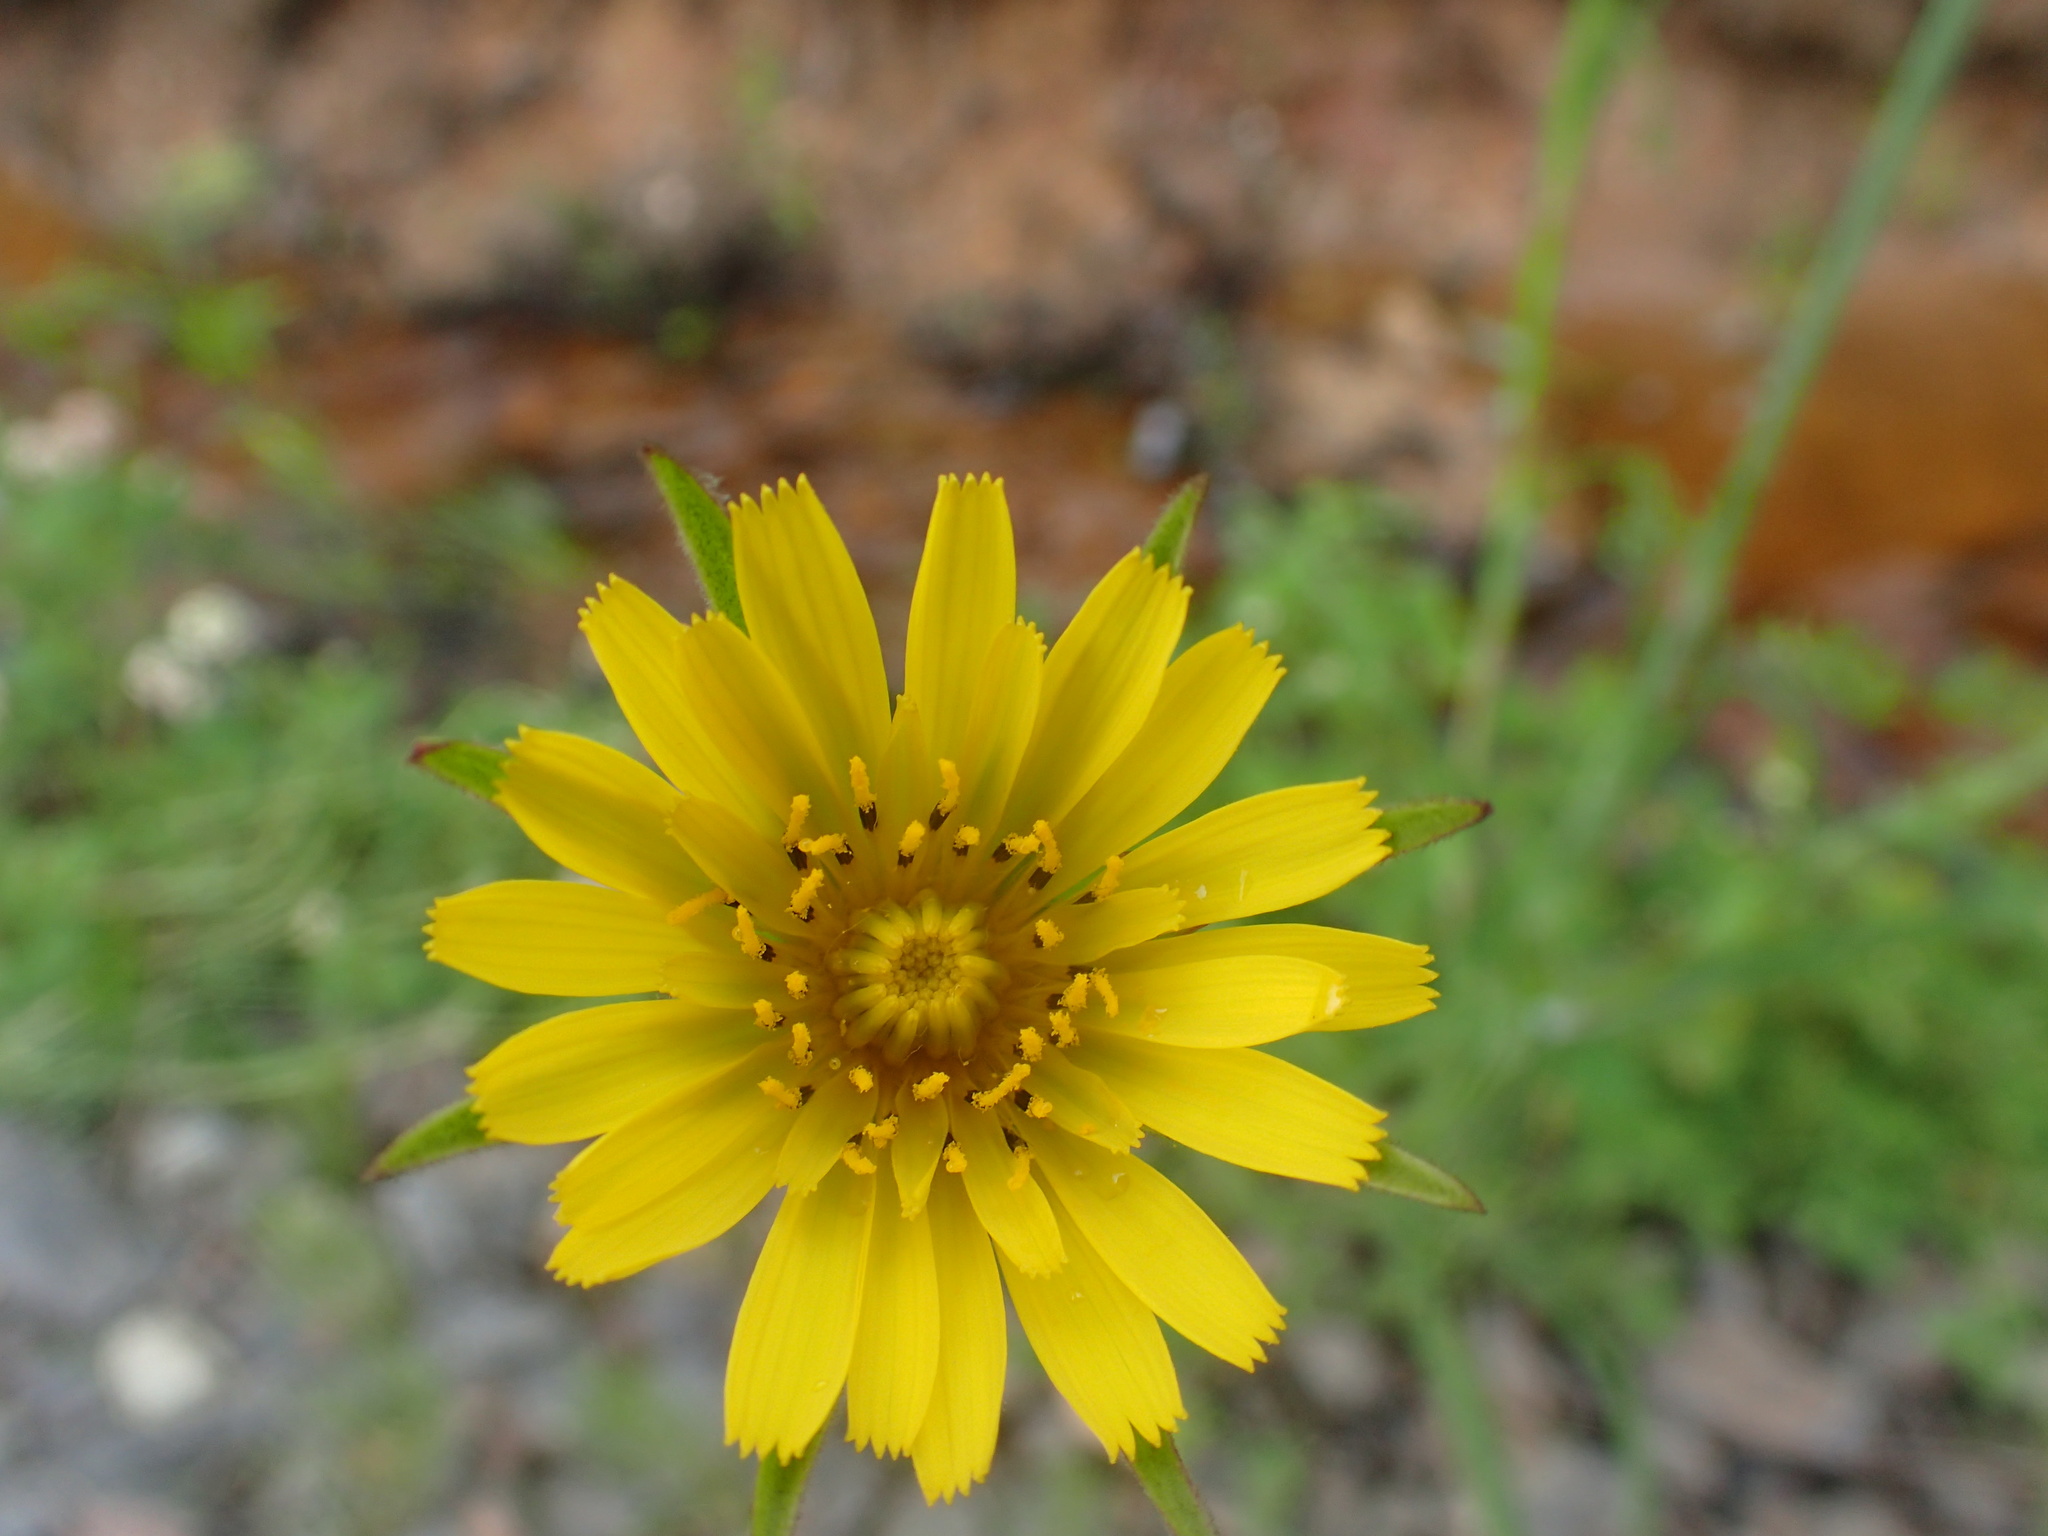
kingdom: Plantae
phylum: Tracheophyta
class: Magnoliopsida
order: Asterales
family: Asteraceae
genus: Tragopogon
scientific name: Tragopogon pratensis
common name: Goat's-beard
